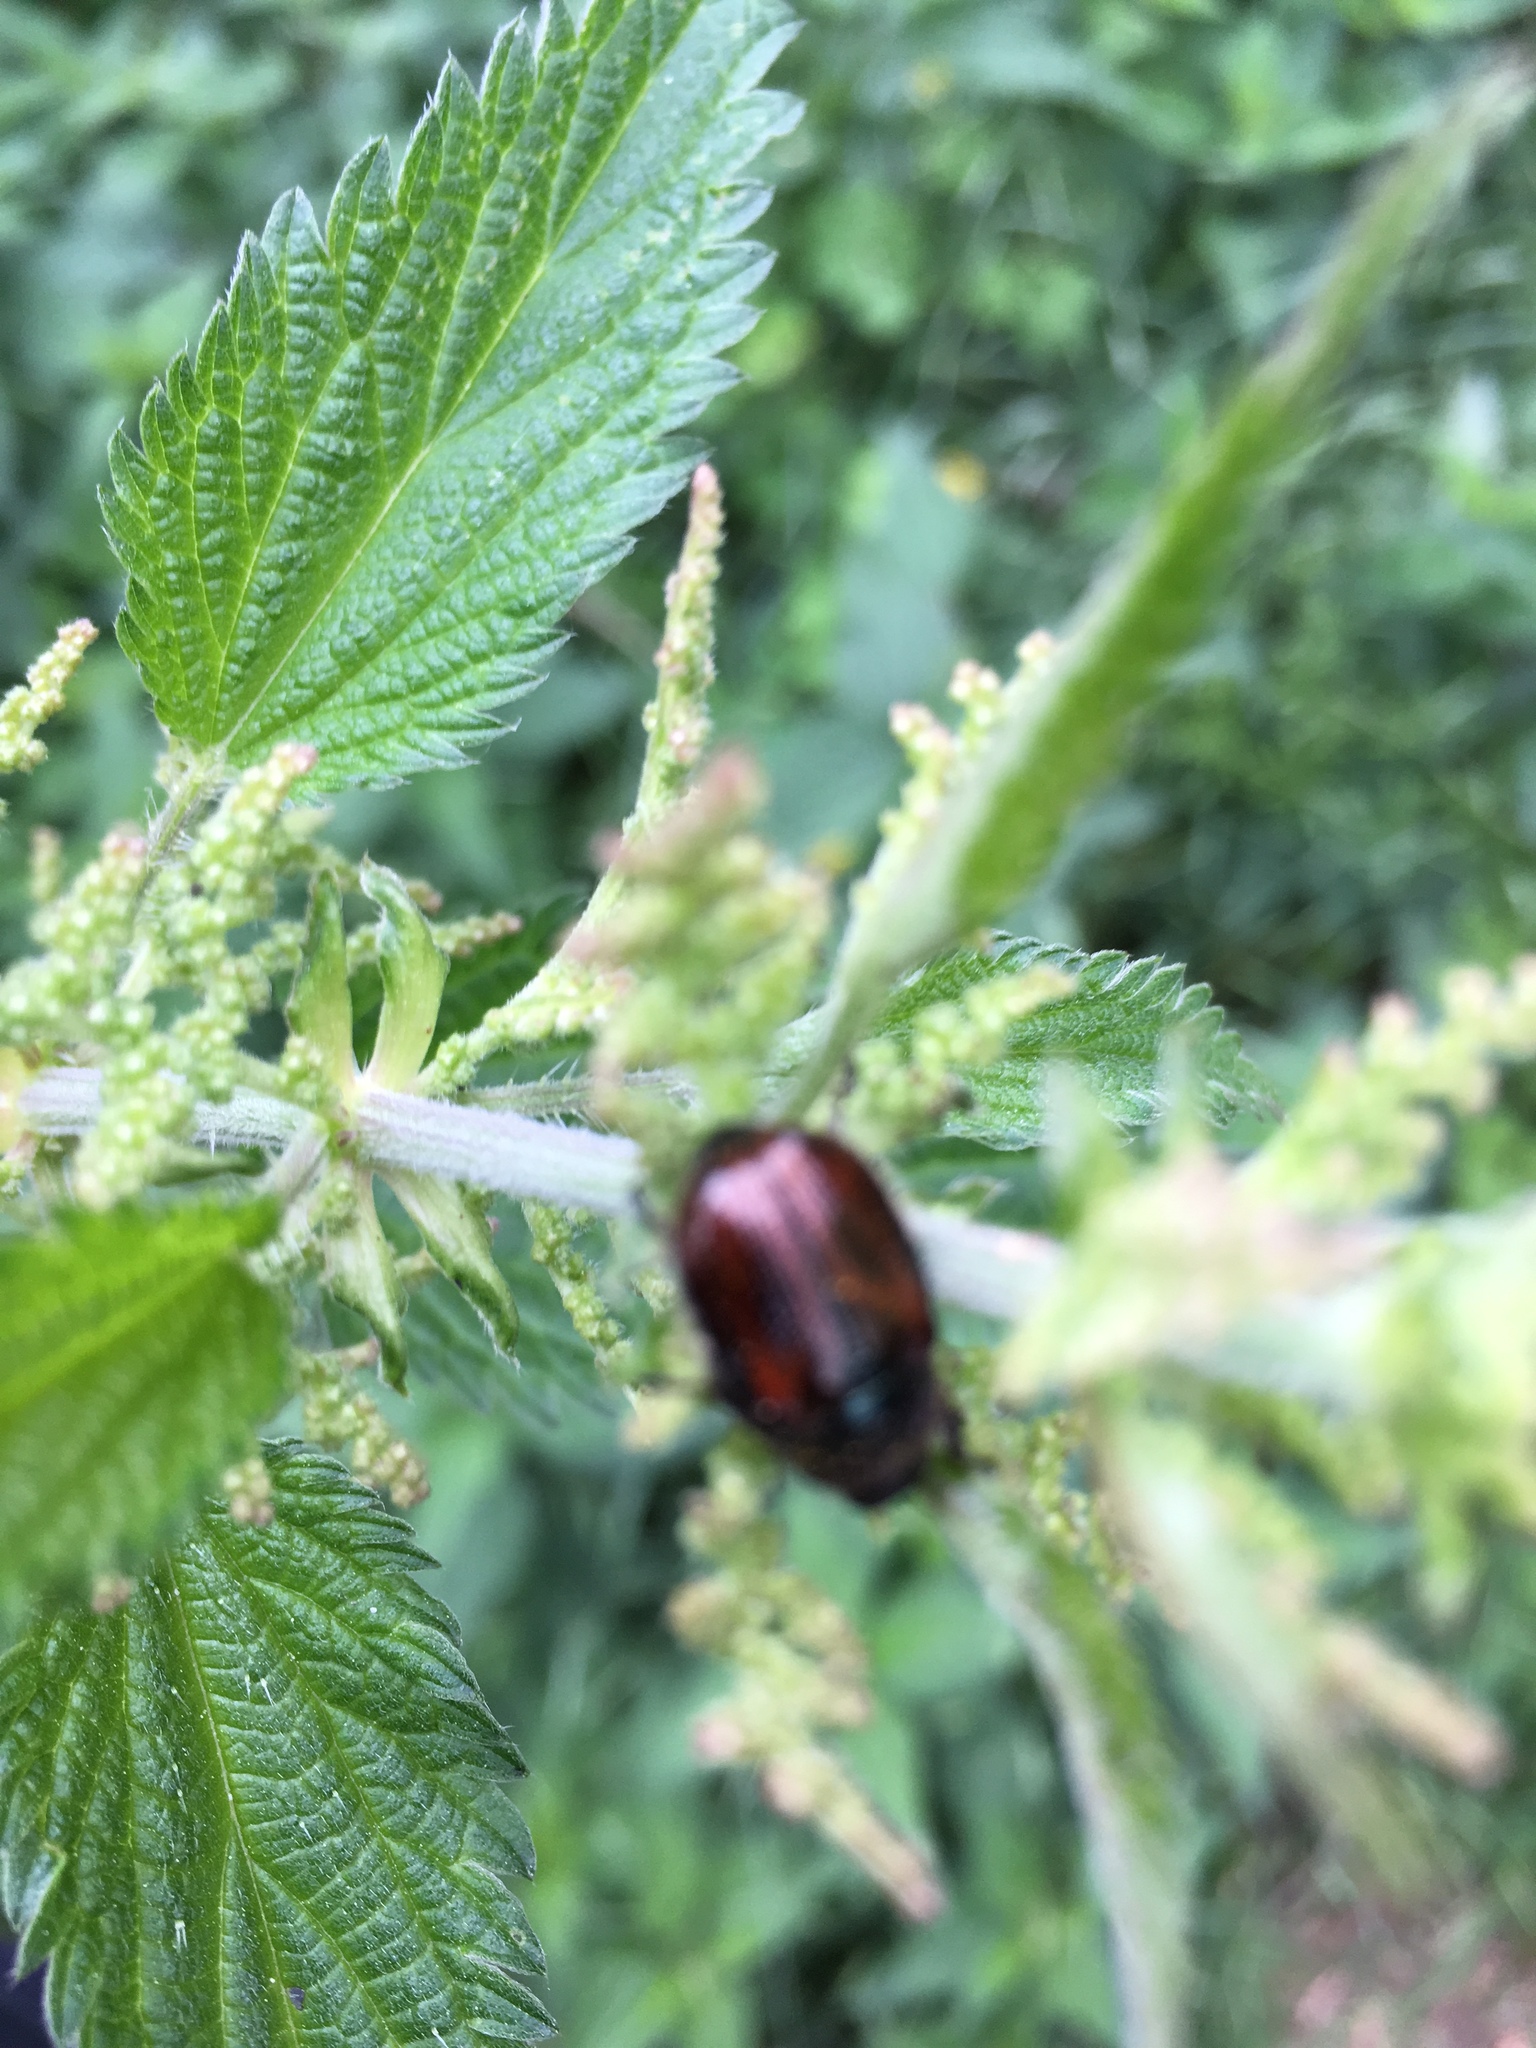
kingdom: Animalia
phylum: Arthropoda
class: Insecta
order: Coleoptera
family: Scarabaeidae
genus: Phyllopertha
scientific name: Phyllopertha horticola
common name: Garden chafer
